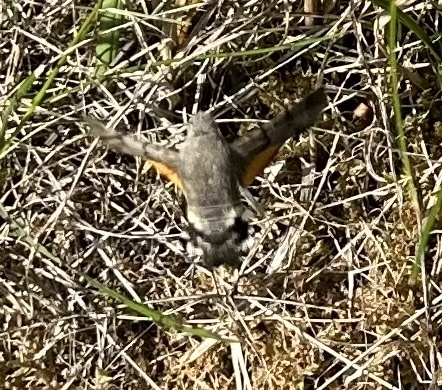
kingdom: Animalia
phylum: Arthropoda
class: Insecta
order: Lepidoptera
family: Sphingidae
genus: Macroglossum
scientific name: Macroglossum stellatarum
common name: Humming-bird hawk-moth
